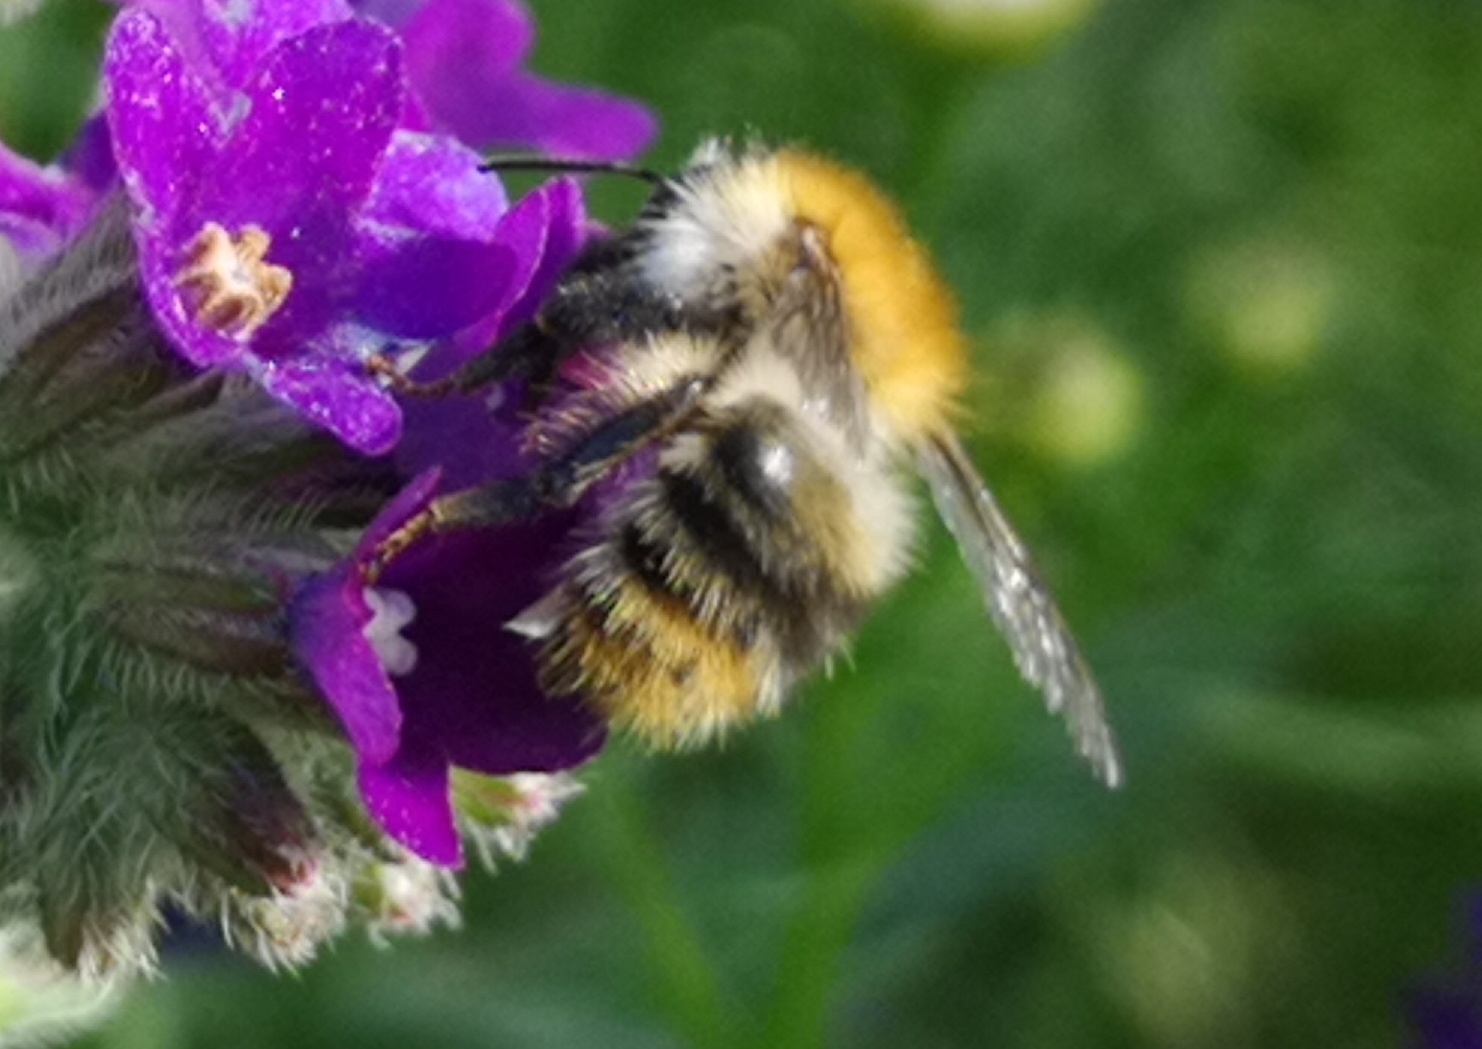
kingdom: Animalia
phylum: Arthropoda
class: Insecta
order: Hymenoptera
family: Apidae
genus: Bombus
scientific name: Bombus pascuorum
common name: Common carder bee
